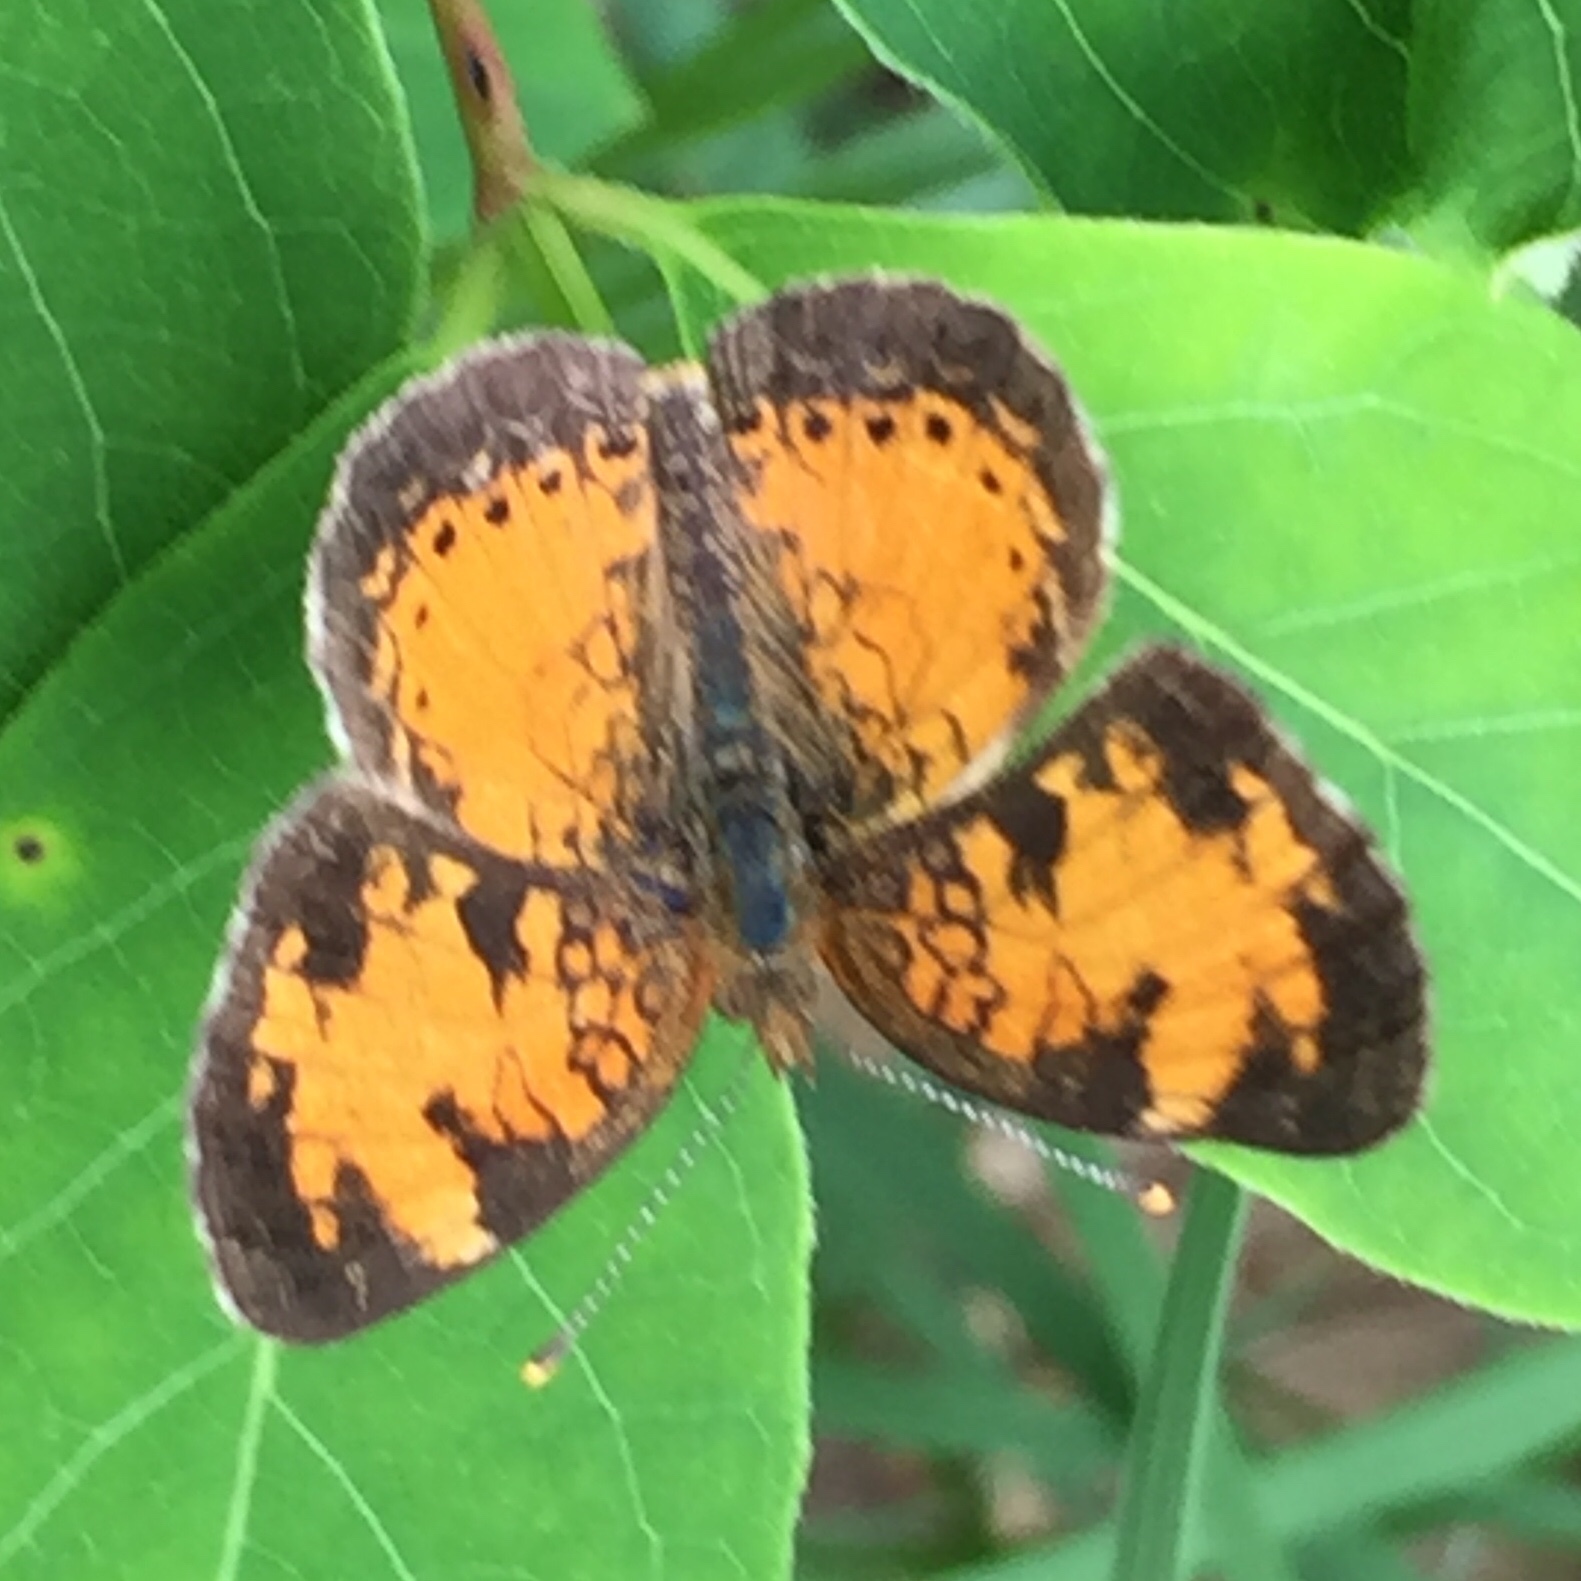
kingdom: Animalia
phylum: Arthropoda
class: Insecta
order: Lepidoptera
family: Nymphalidae
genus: Phyciodes
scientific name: Phyciodes tharos
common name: Pearl crescent
